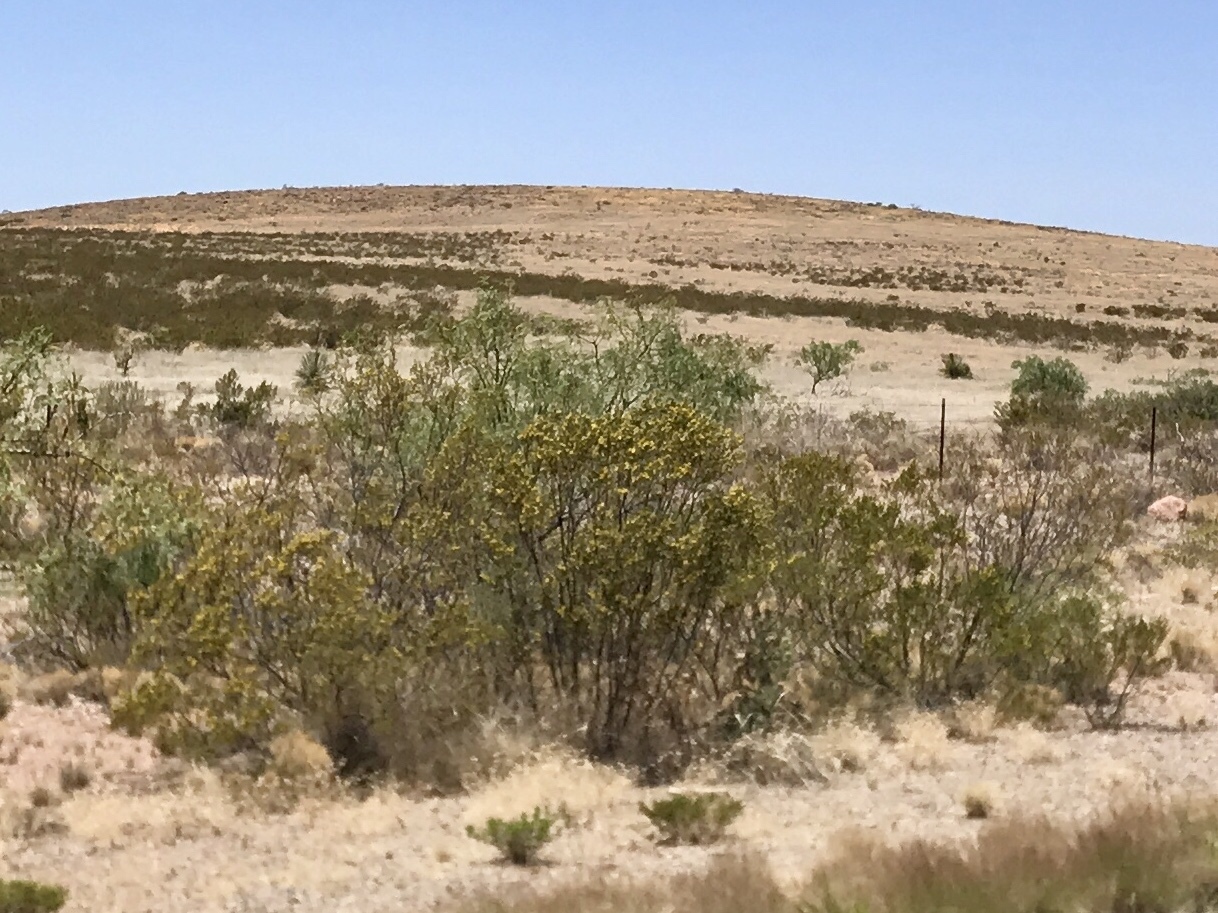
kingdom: Plantae
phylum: Tracheophyta
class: Magnoliopsida
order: Zygophyllales
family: Zygophyllaceae
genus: Larrea
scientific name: Larrea tridentata
